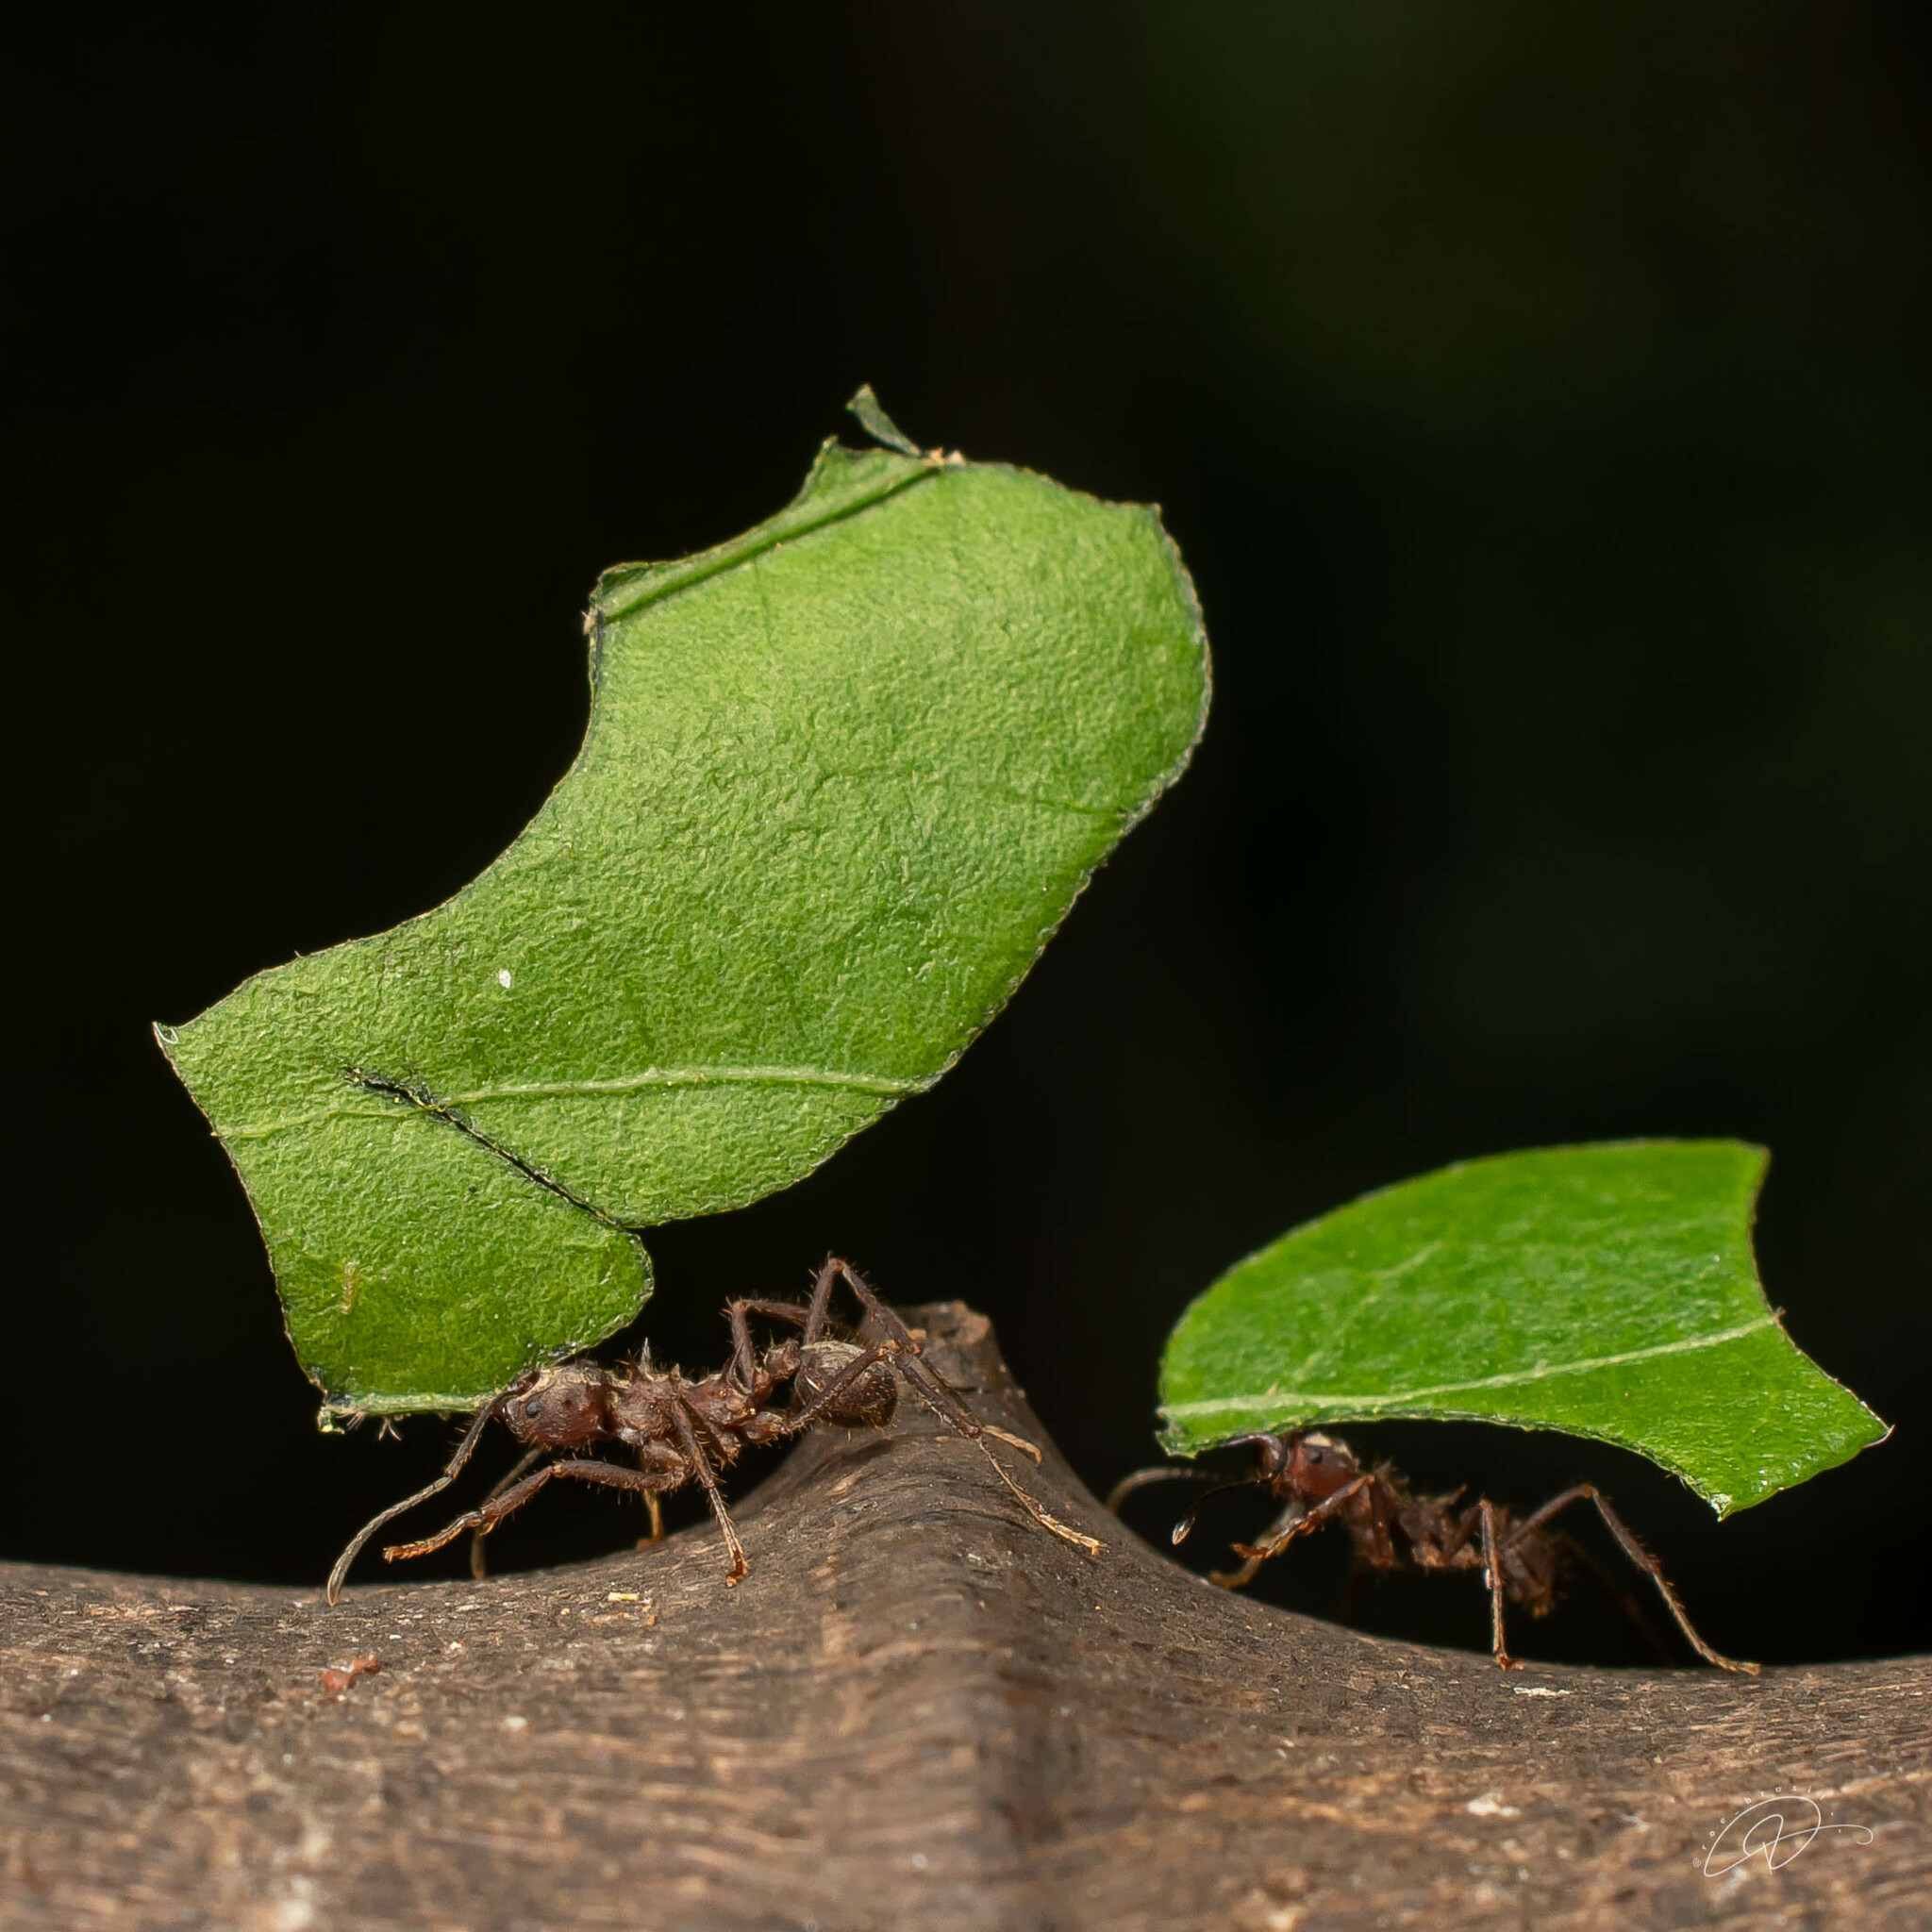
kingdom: Animalia
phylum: Arthropoda
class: Insecta
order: Hymenoptera
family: Formicidae
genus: Acromyrmex
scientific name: Acromyrmex disciger
